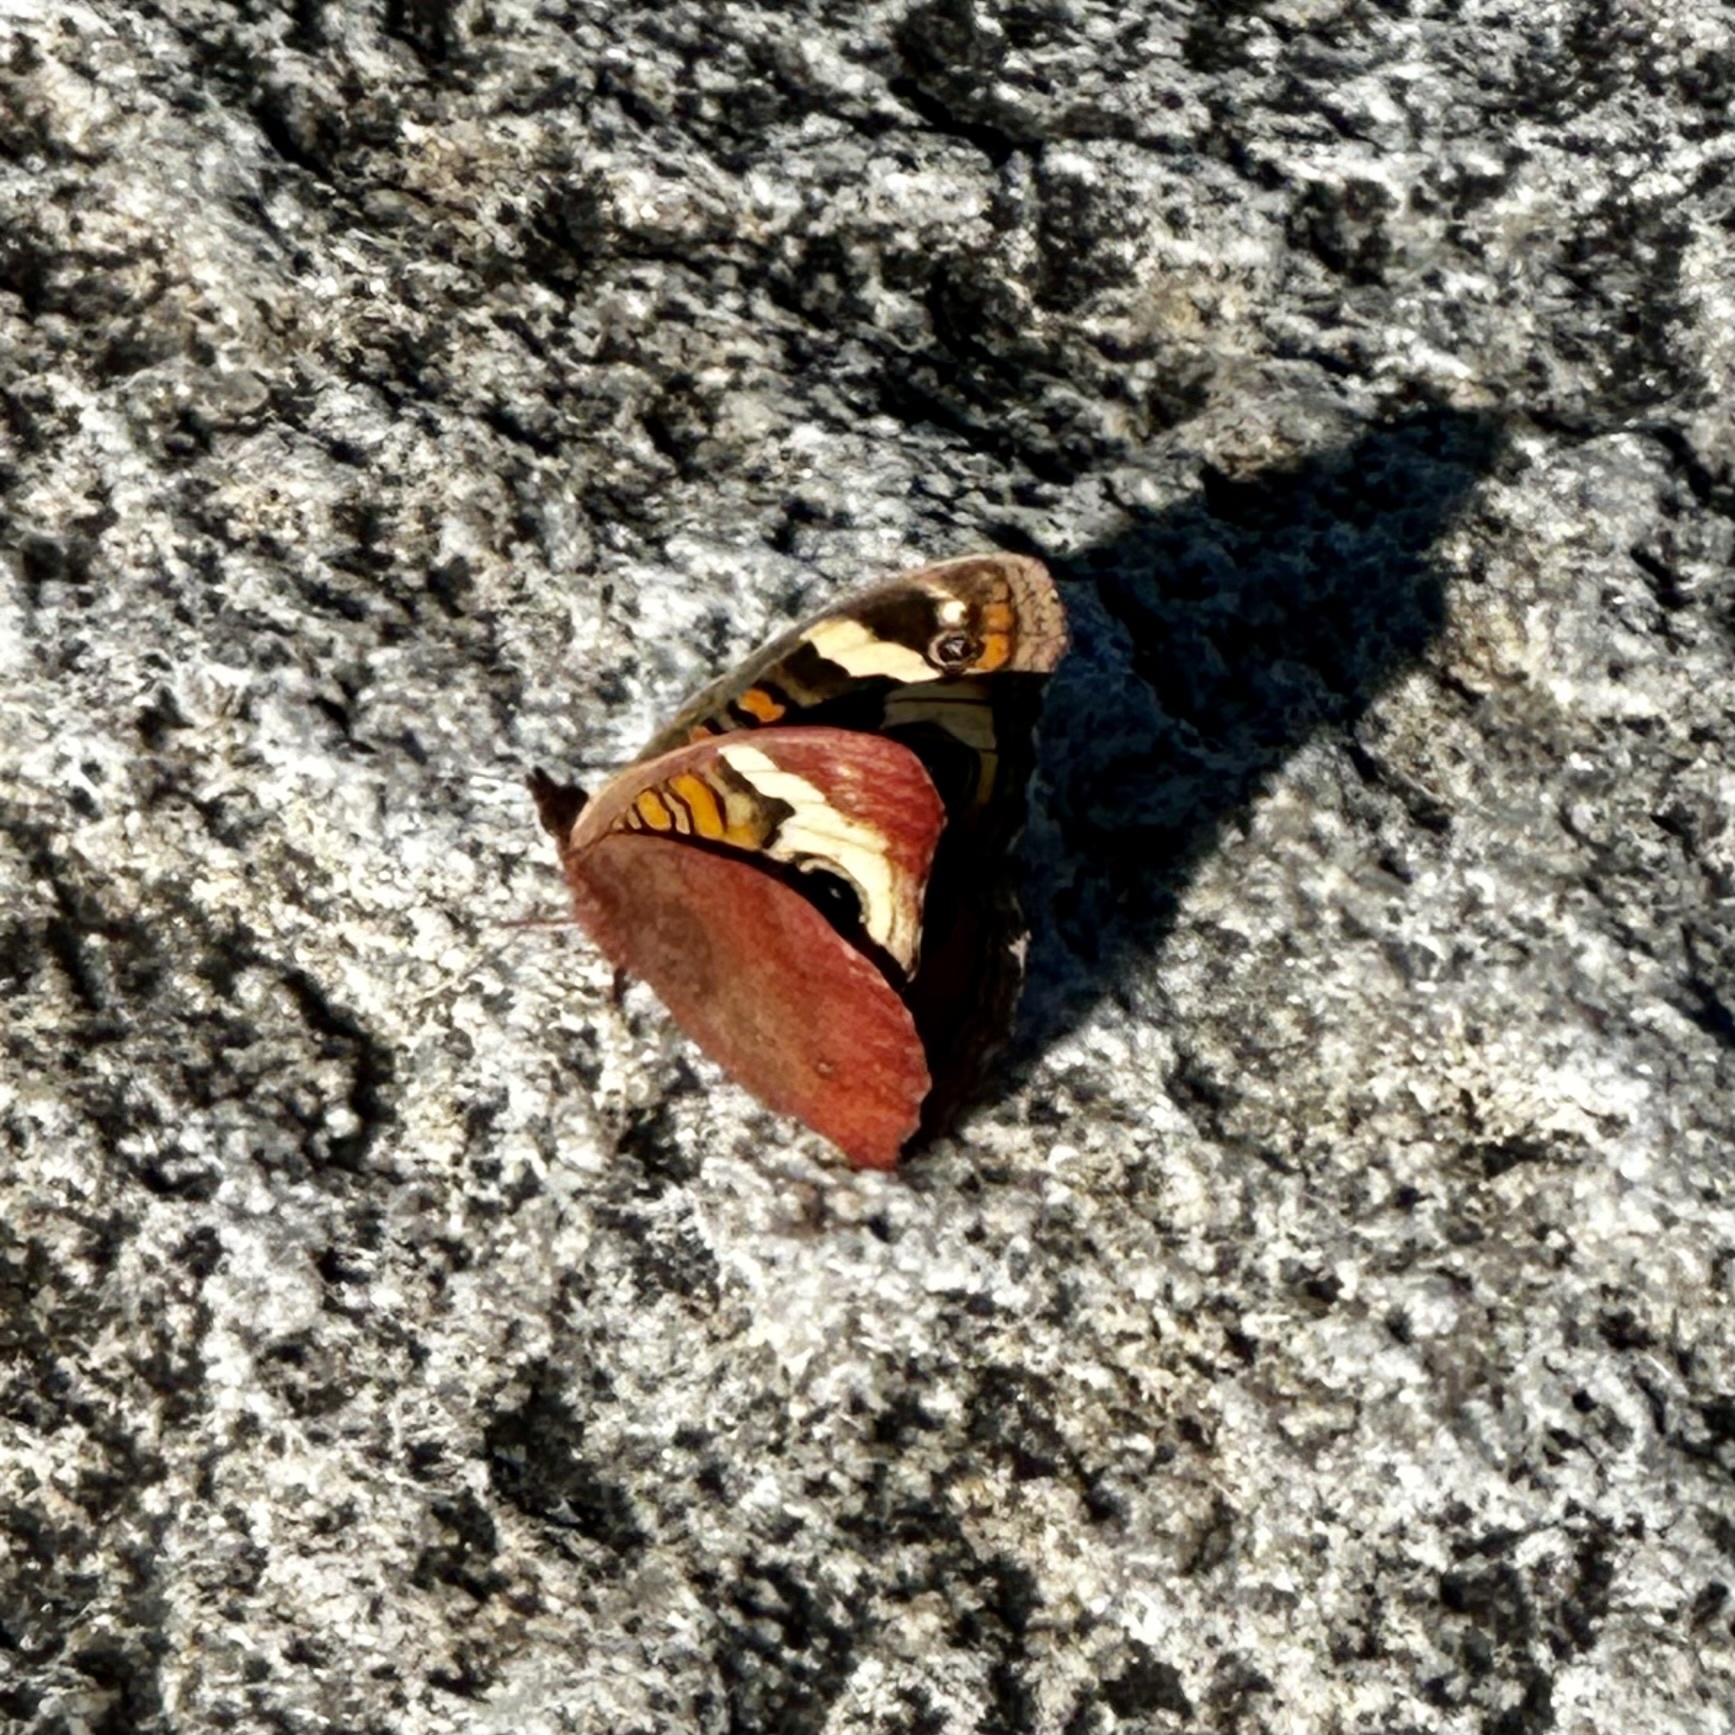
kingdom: Animalia
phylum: Arthropoda
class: Insecta
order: Lepidoptera
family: Nymphalidae
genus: Junonia
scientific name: Junonia coenia
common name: Common buckeye
